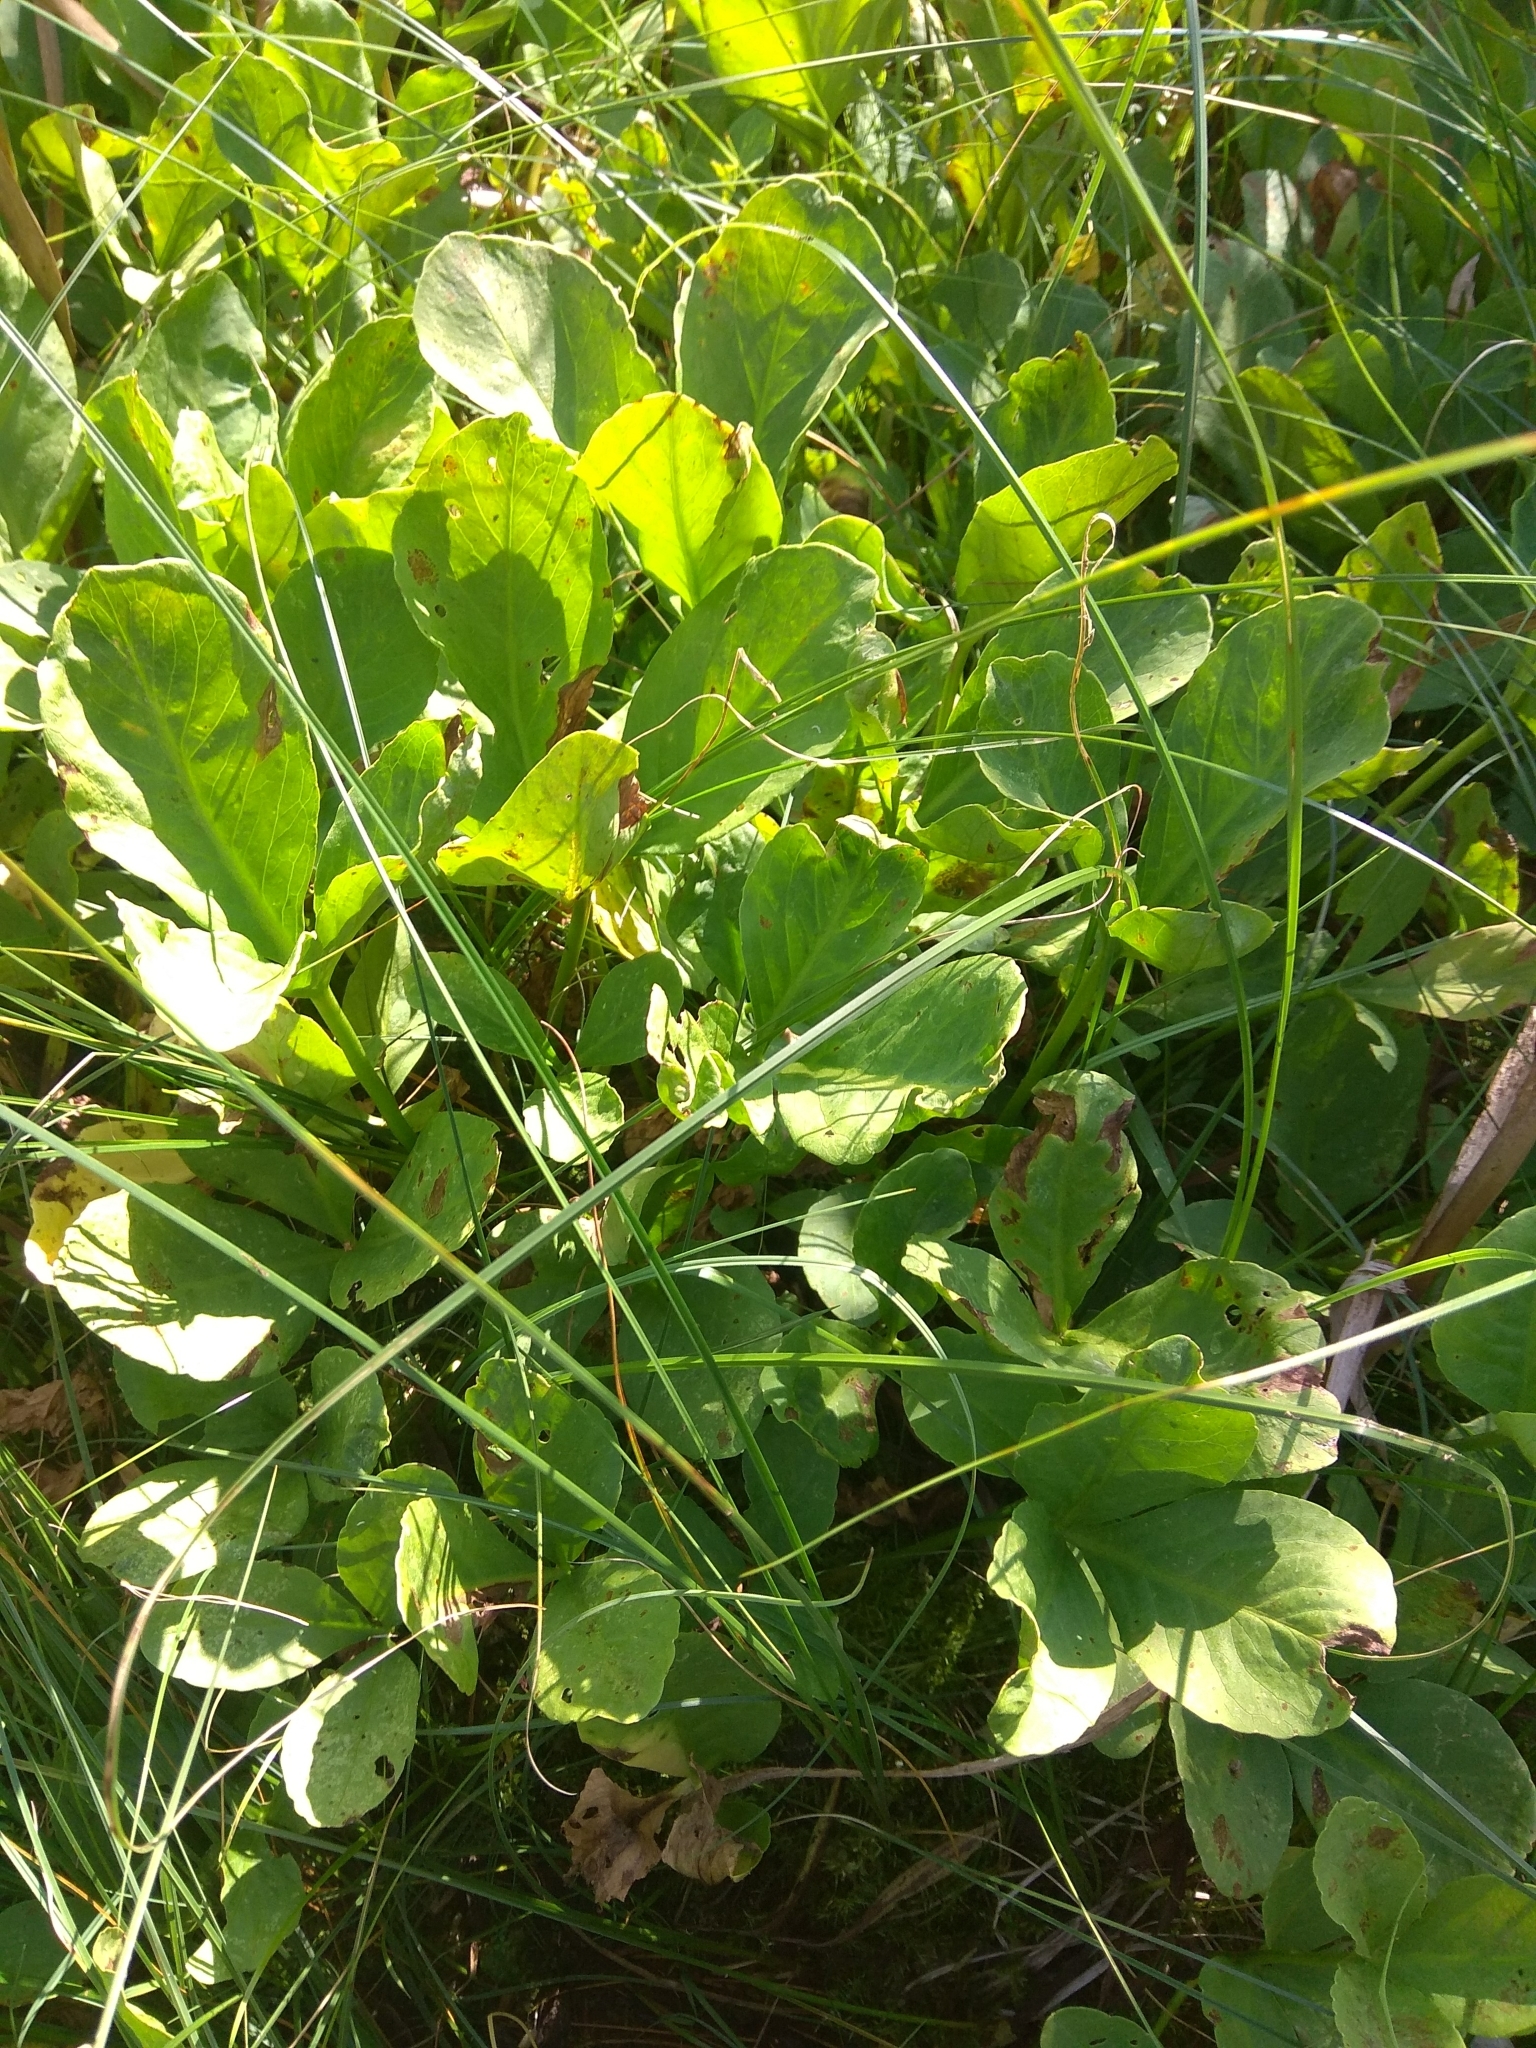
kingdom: Plantae
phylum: Tracheophyta
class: Magnoliopsida
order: Asterales
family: Menyanthaceae
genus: Menyanthes
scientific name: Menyanthes trifoliata
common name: Bogbean
